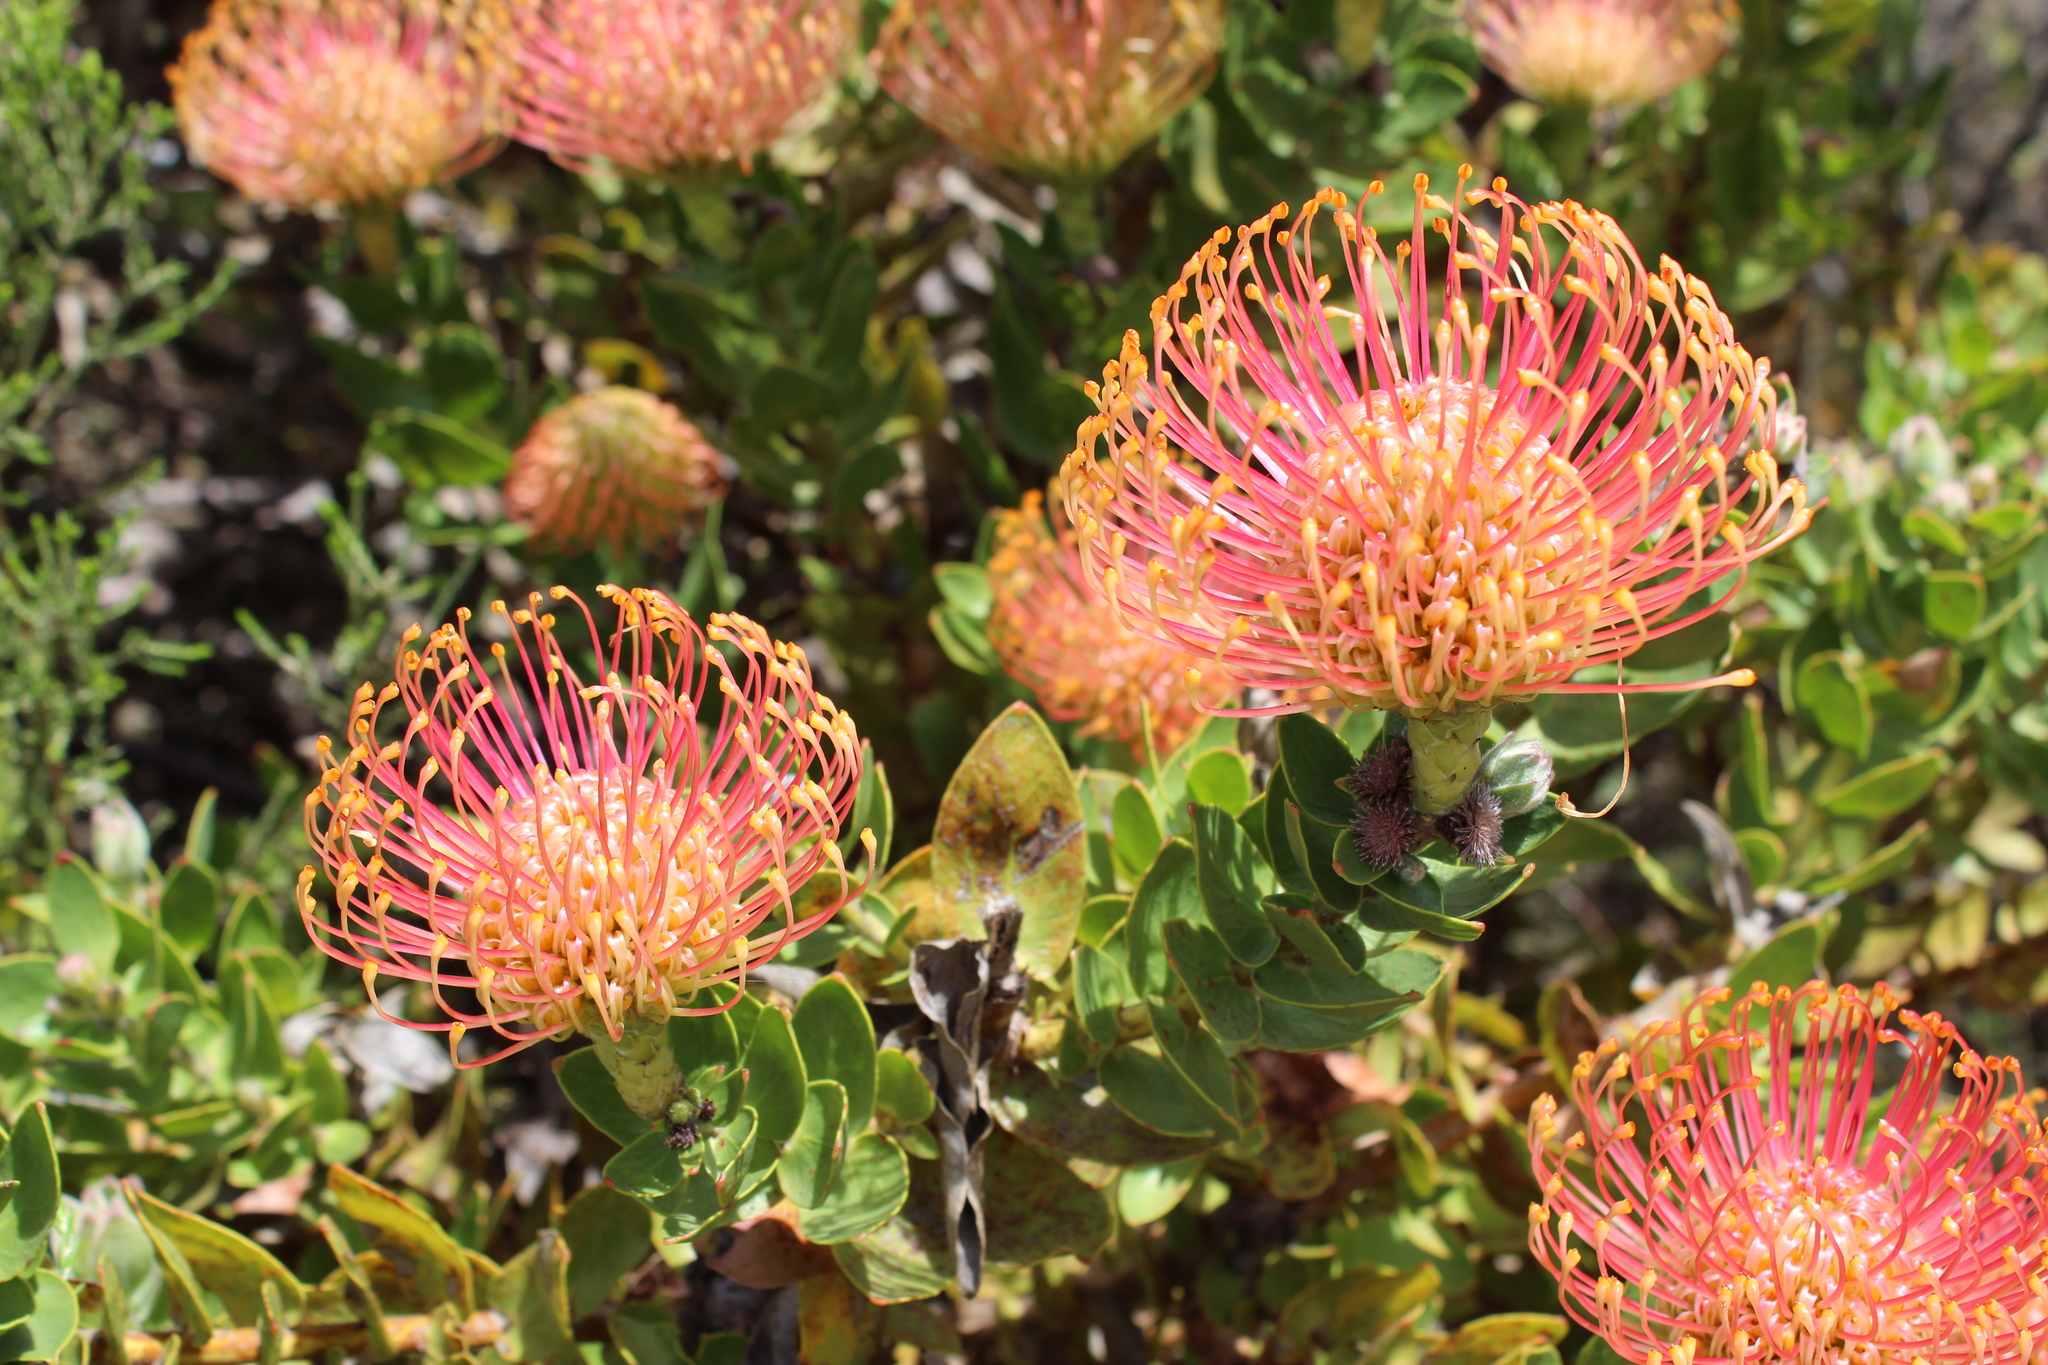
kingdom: Plantae
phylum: Tracheophyta
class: Magnoliopsida
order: Proteales
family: Proteaceae
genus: Leucospermum
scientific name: Leucospermum cordifolium
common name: Red pincushion-protea
